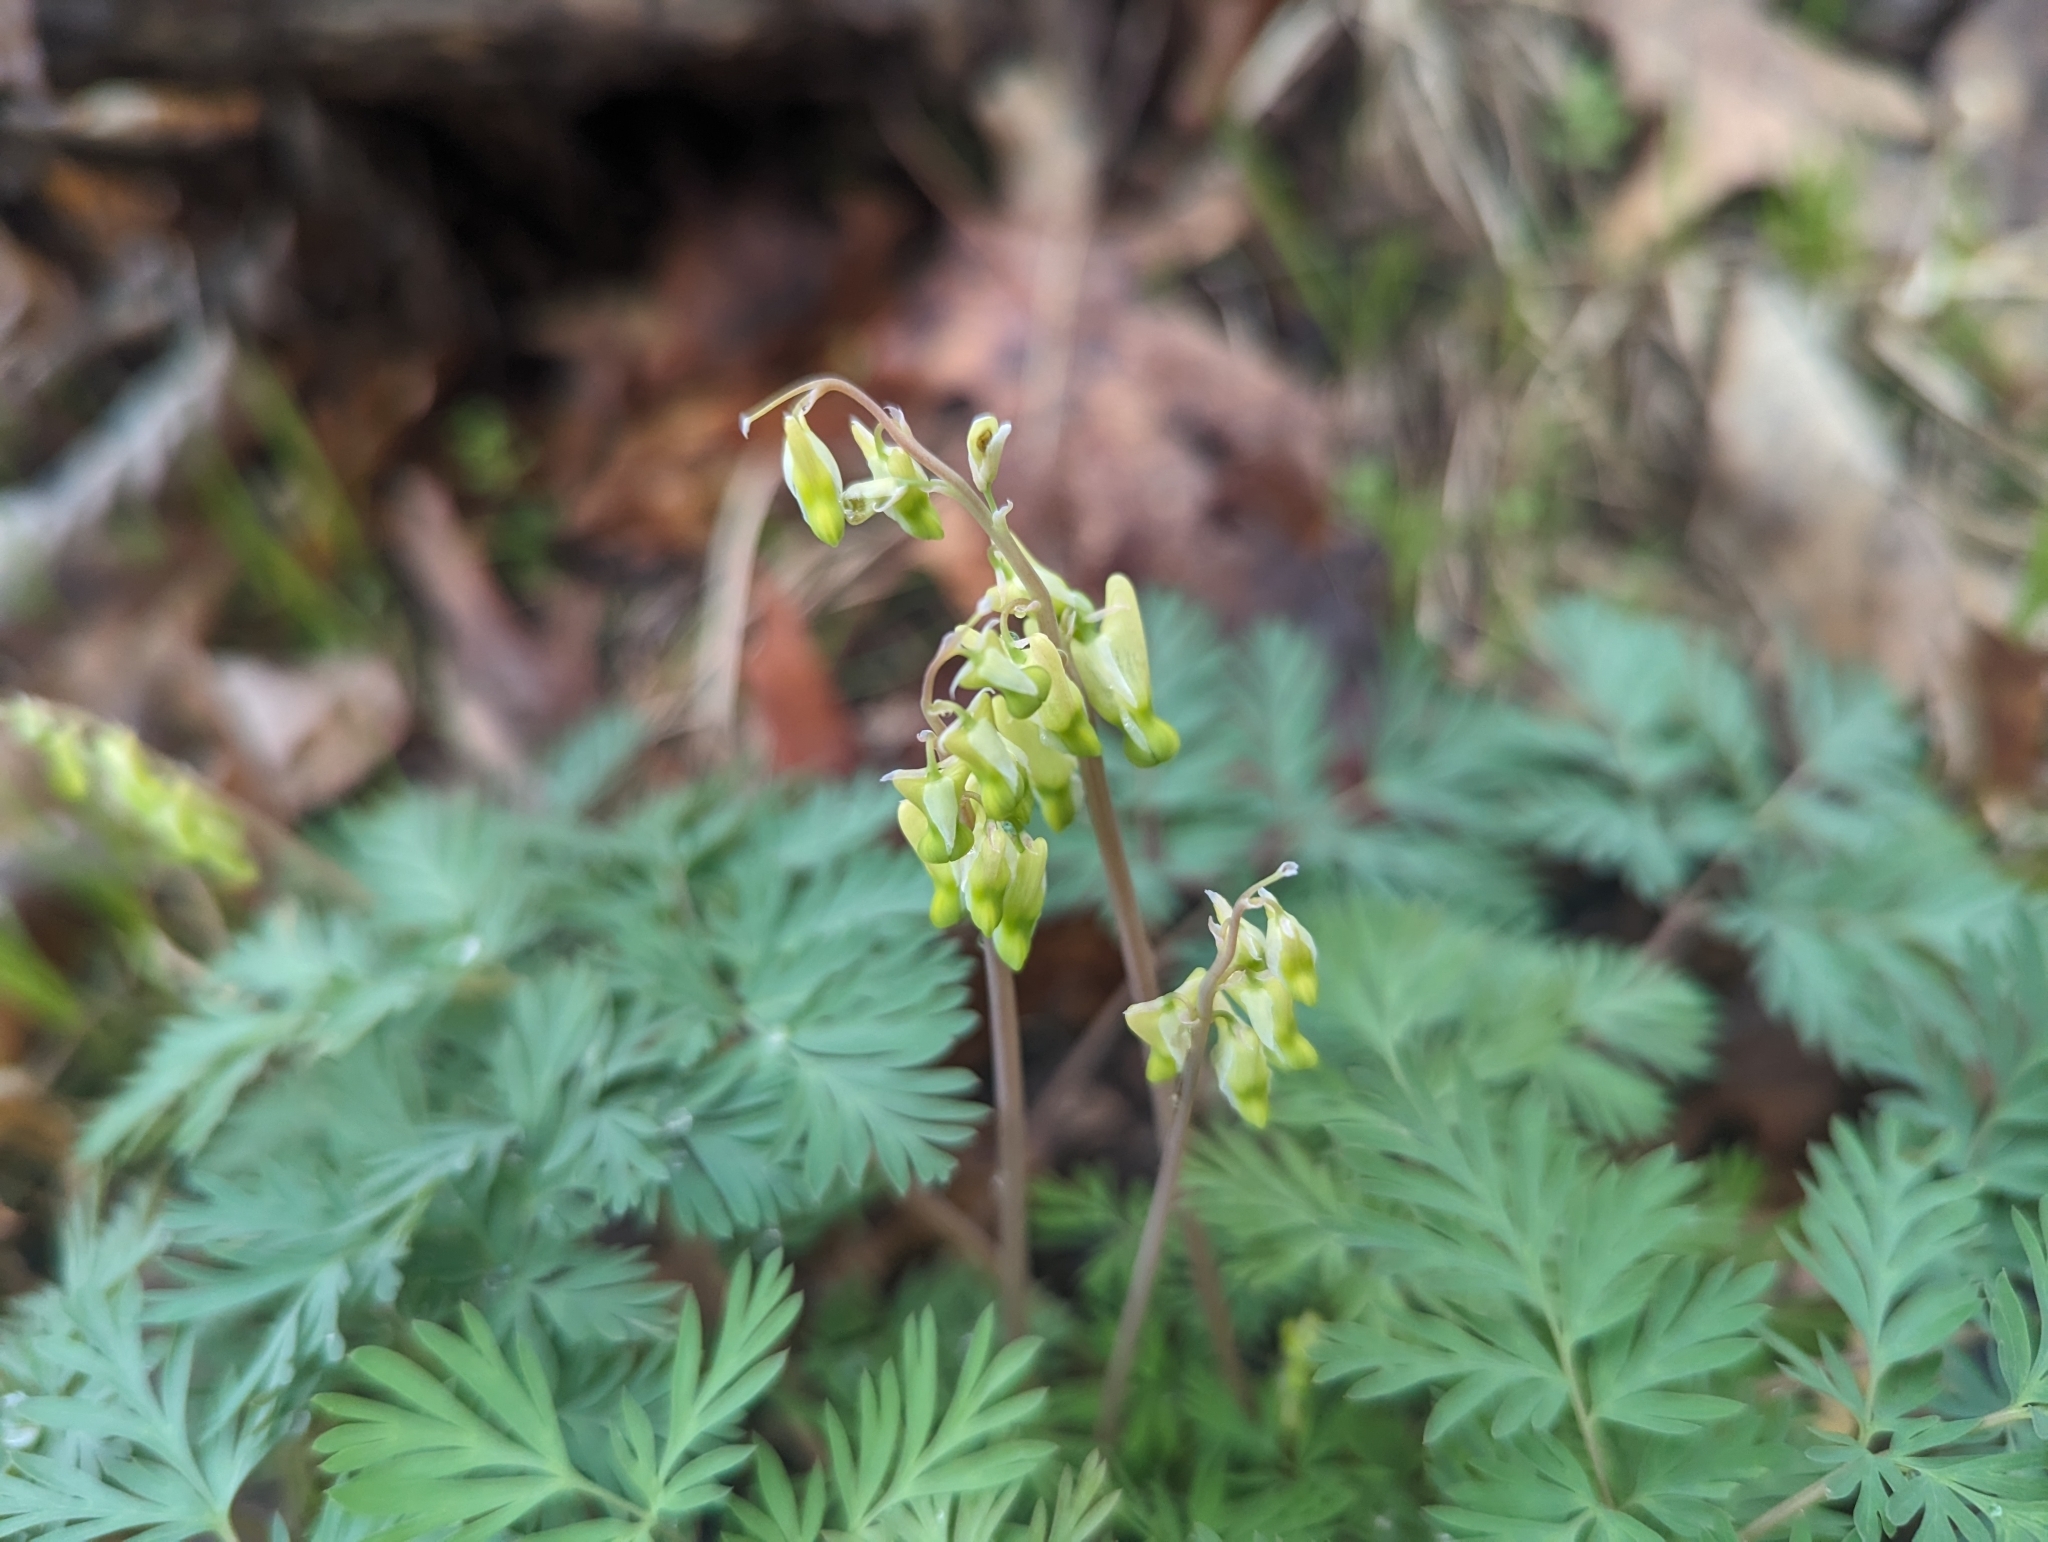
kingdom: Plantae
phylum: Tracheophyta
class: Magnoliopsida
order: Ranunculales
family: Papaveraceae
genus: Dicentra
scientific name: Dicentra cucullaria
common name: Dutchman's breeches
